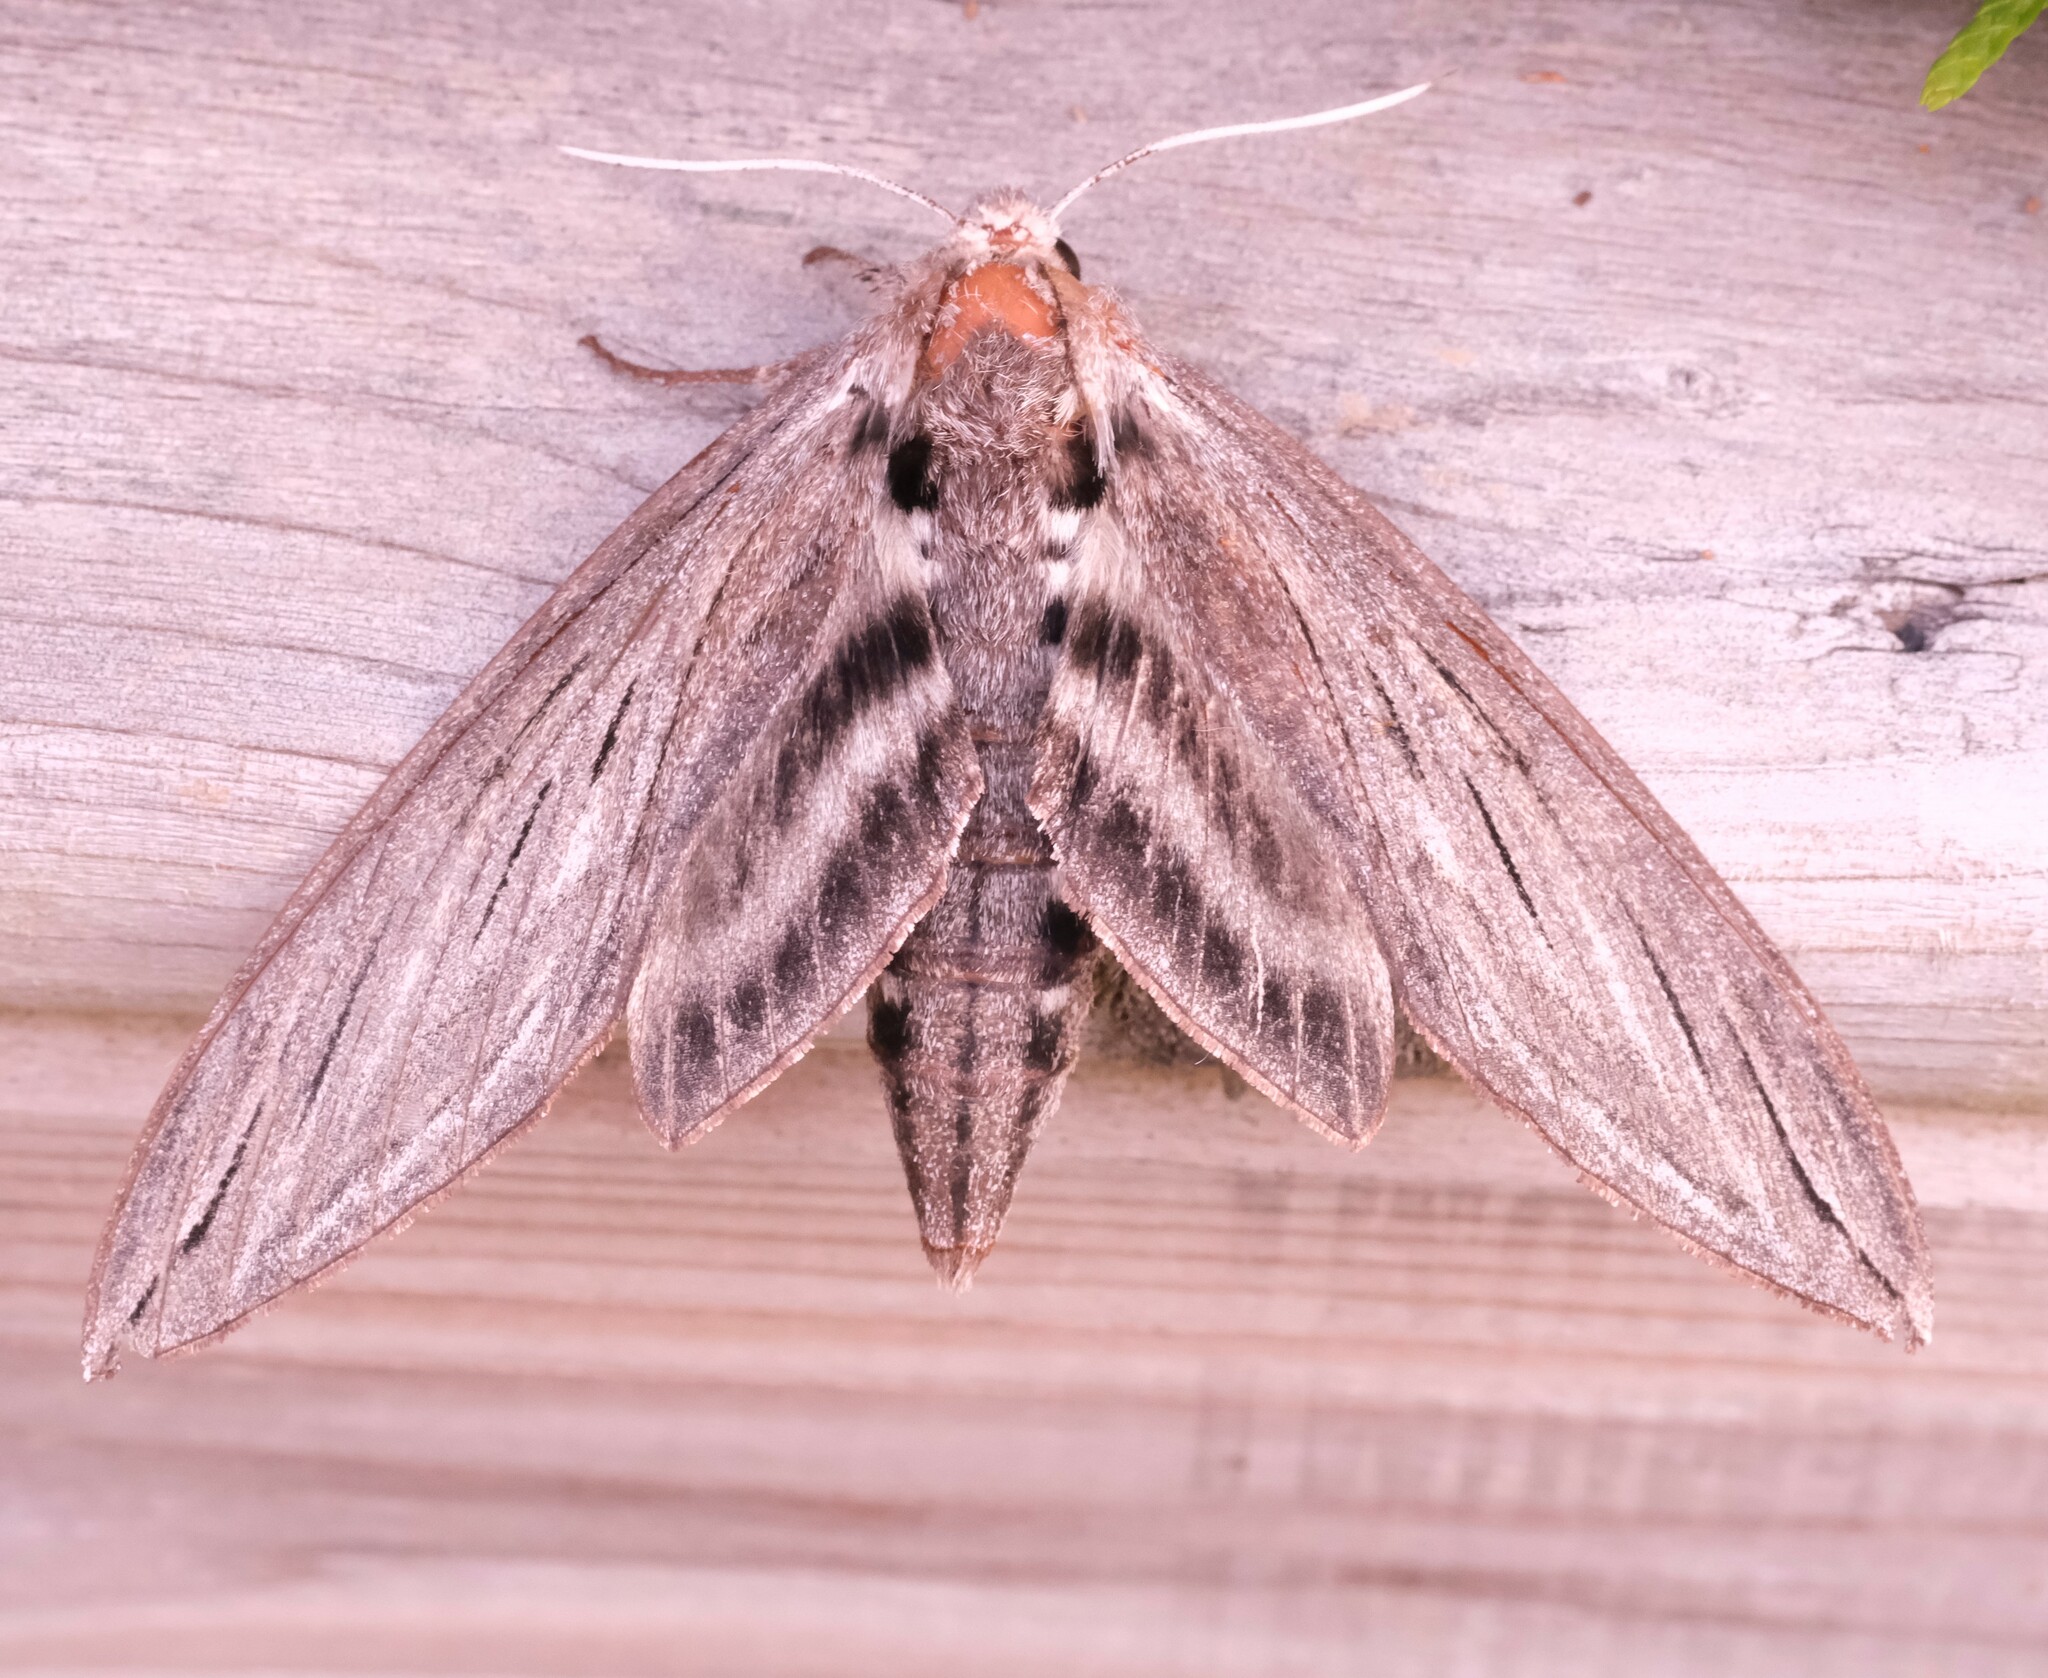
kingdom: Animalia
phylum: Arthropoda
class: Insecta
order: Lepidoptera
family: Sphingidae
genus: Sphinx
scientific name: Sphinx chersis
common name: Great ash sphinx
